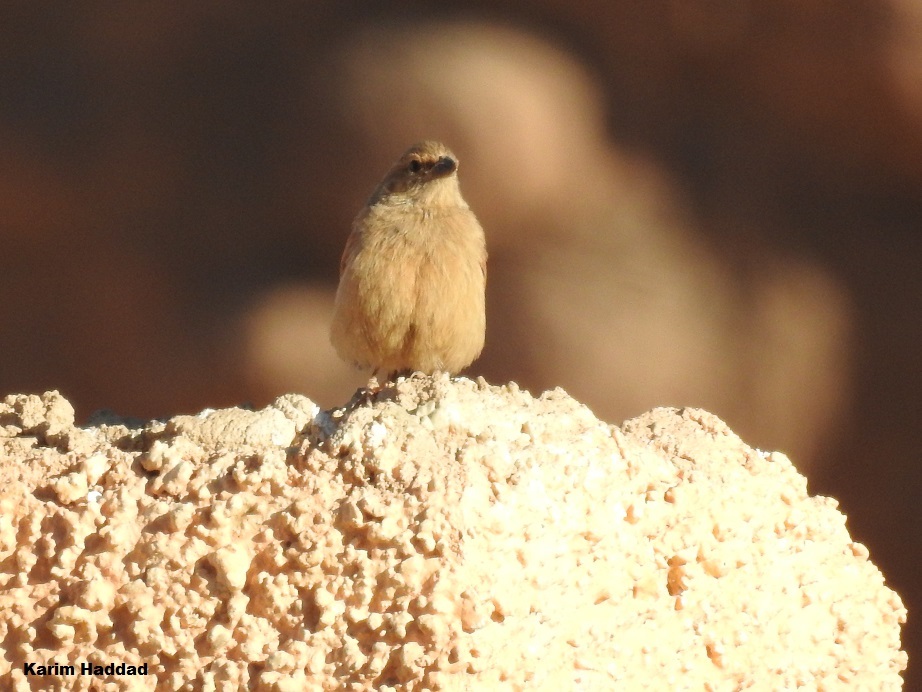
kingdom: Animalia
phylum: Chordata
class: Aves
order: Passeriformes
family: Emberizidae
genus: Emberiza
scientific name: Emberiza sahari
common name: House bunting
